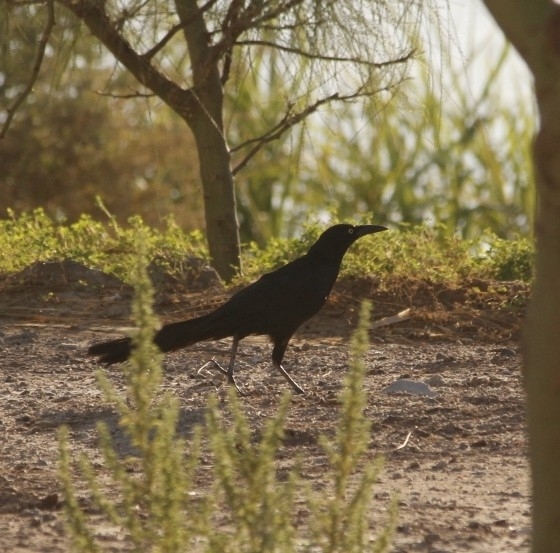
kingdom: Animalia
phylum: Chordata
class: Aves
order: Passeriformes
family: Icteridae
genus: Quiscalus
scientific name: Quiscalus mexicanus
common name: Great-tailed grackle
